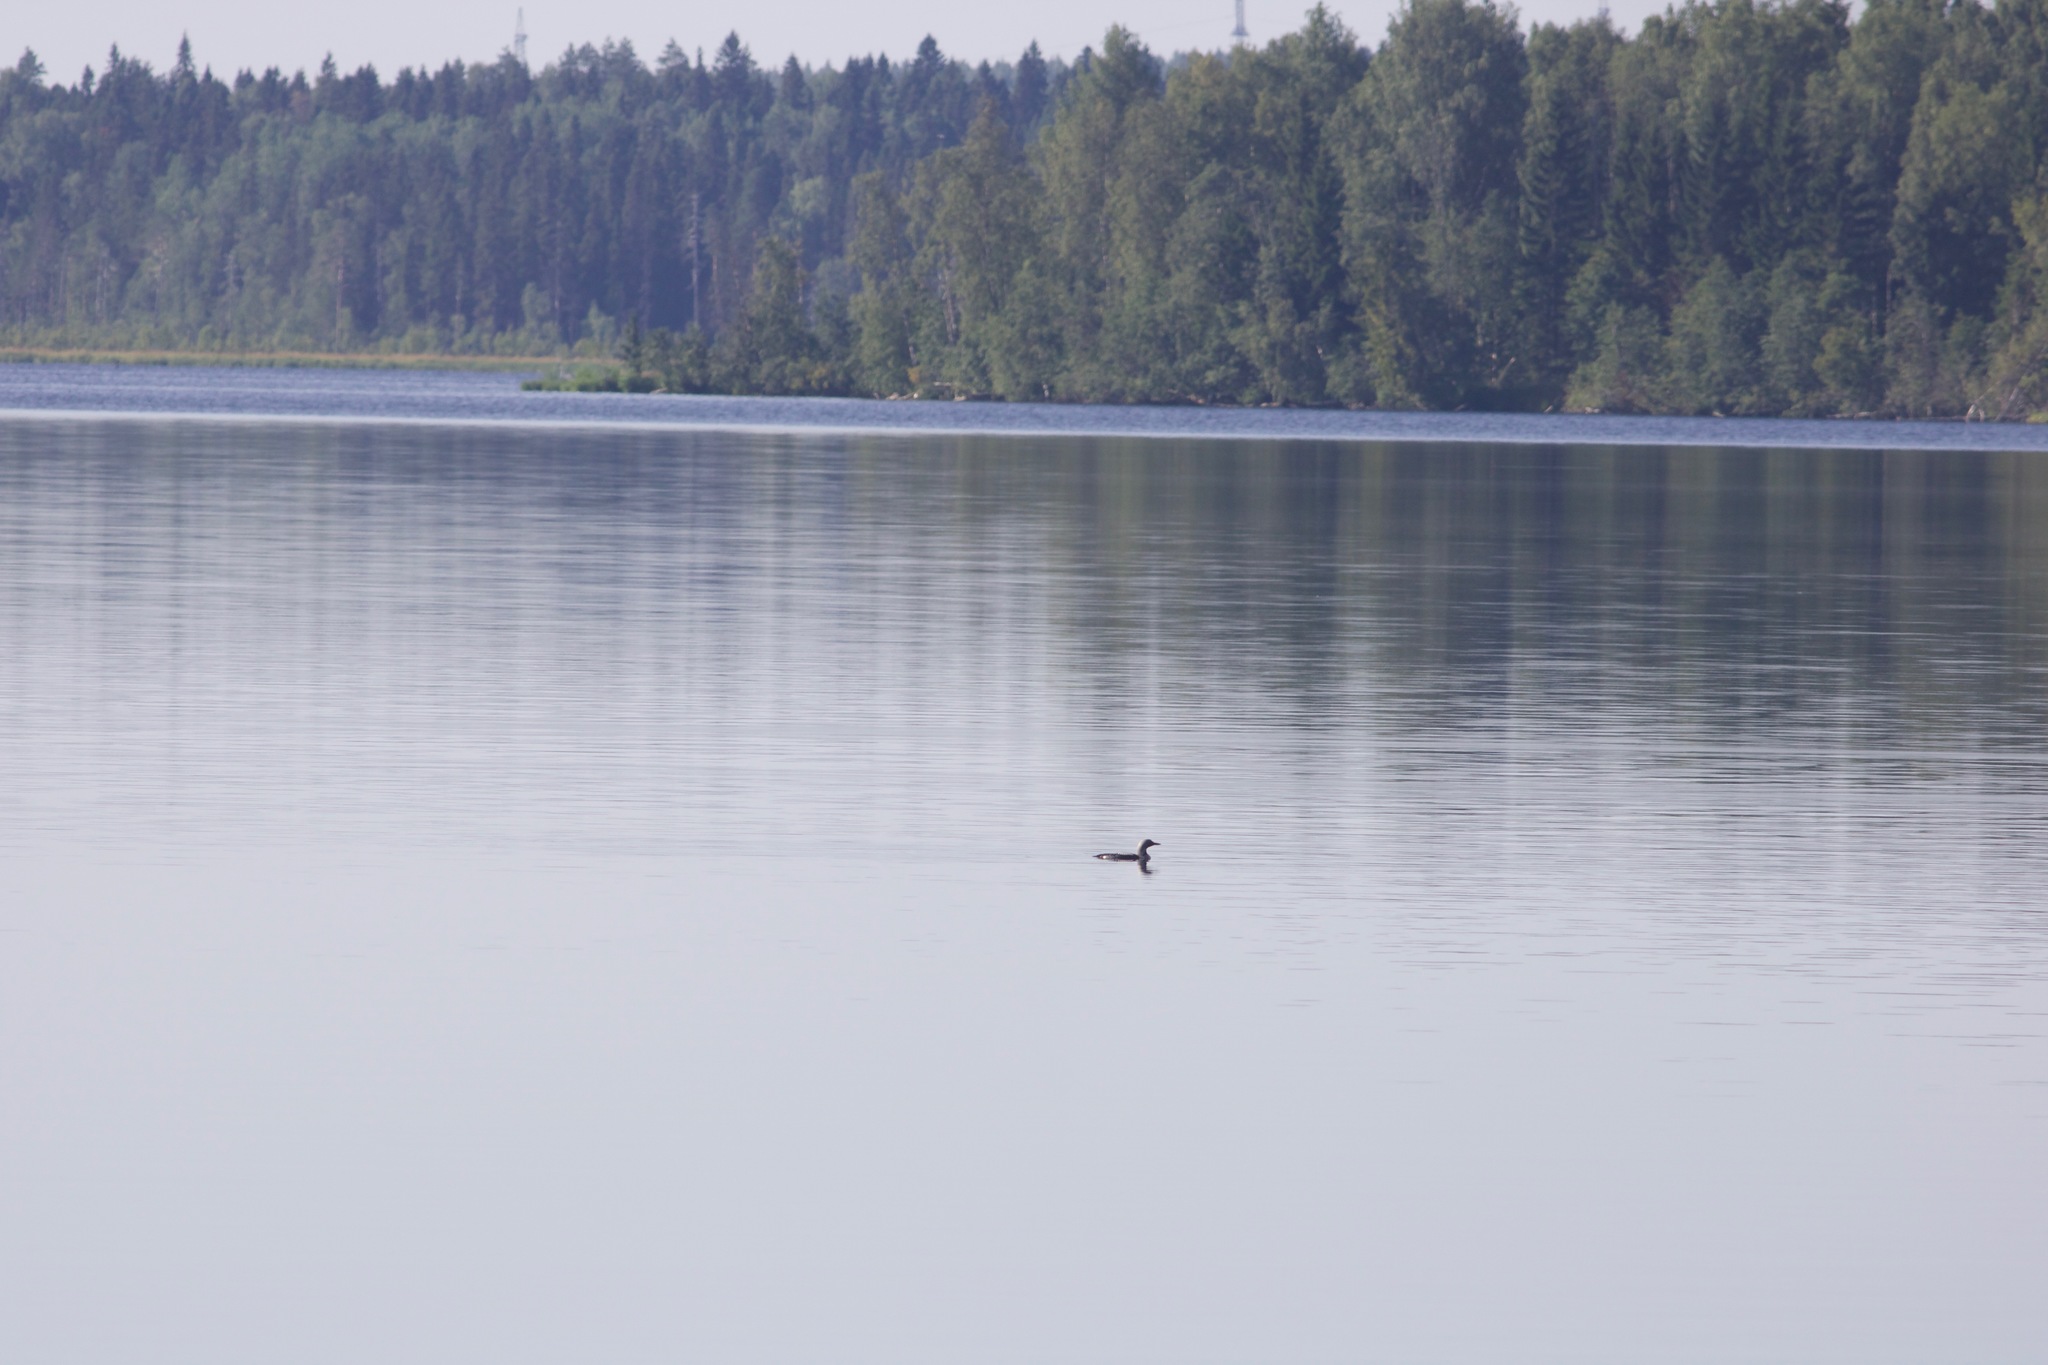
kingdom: Animalia
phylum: Chordata
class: Aves
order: Gaviiformes
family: Gaviidae
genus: Gavia
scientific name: Gavia arctica
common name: Black-throated loon
